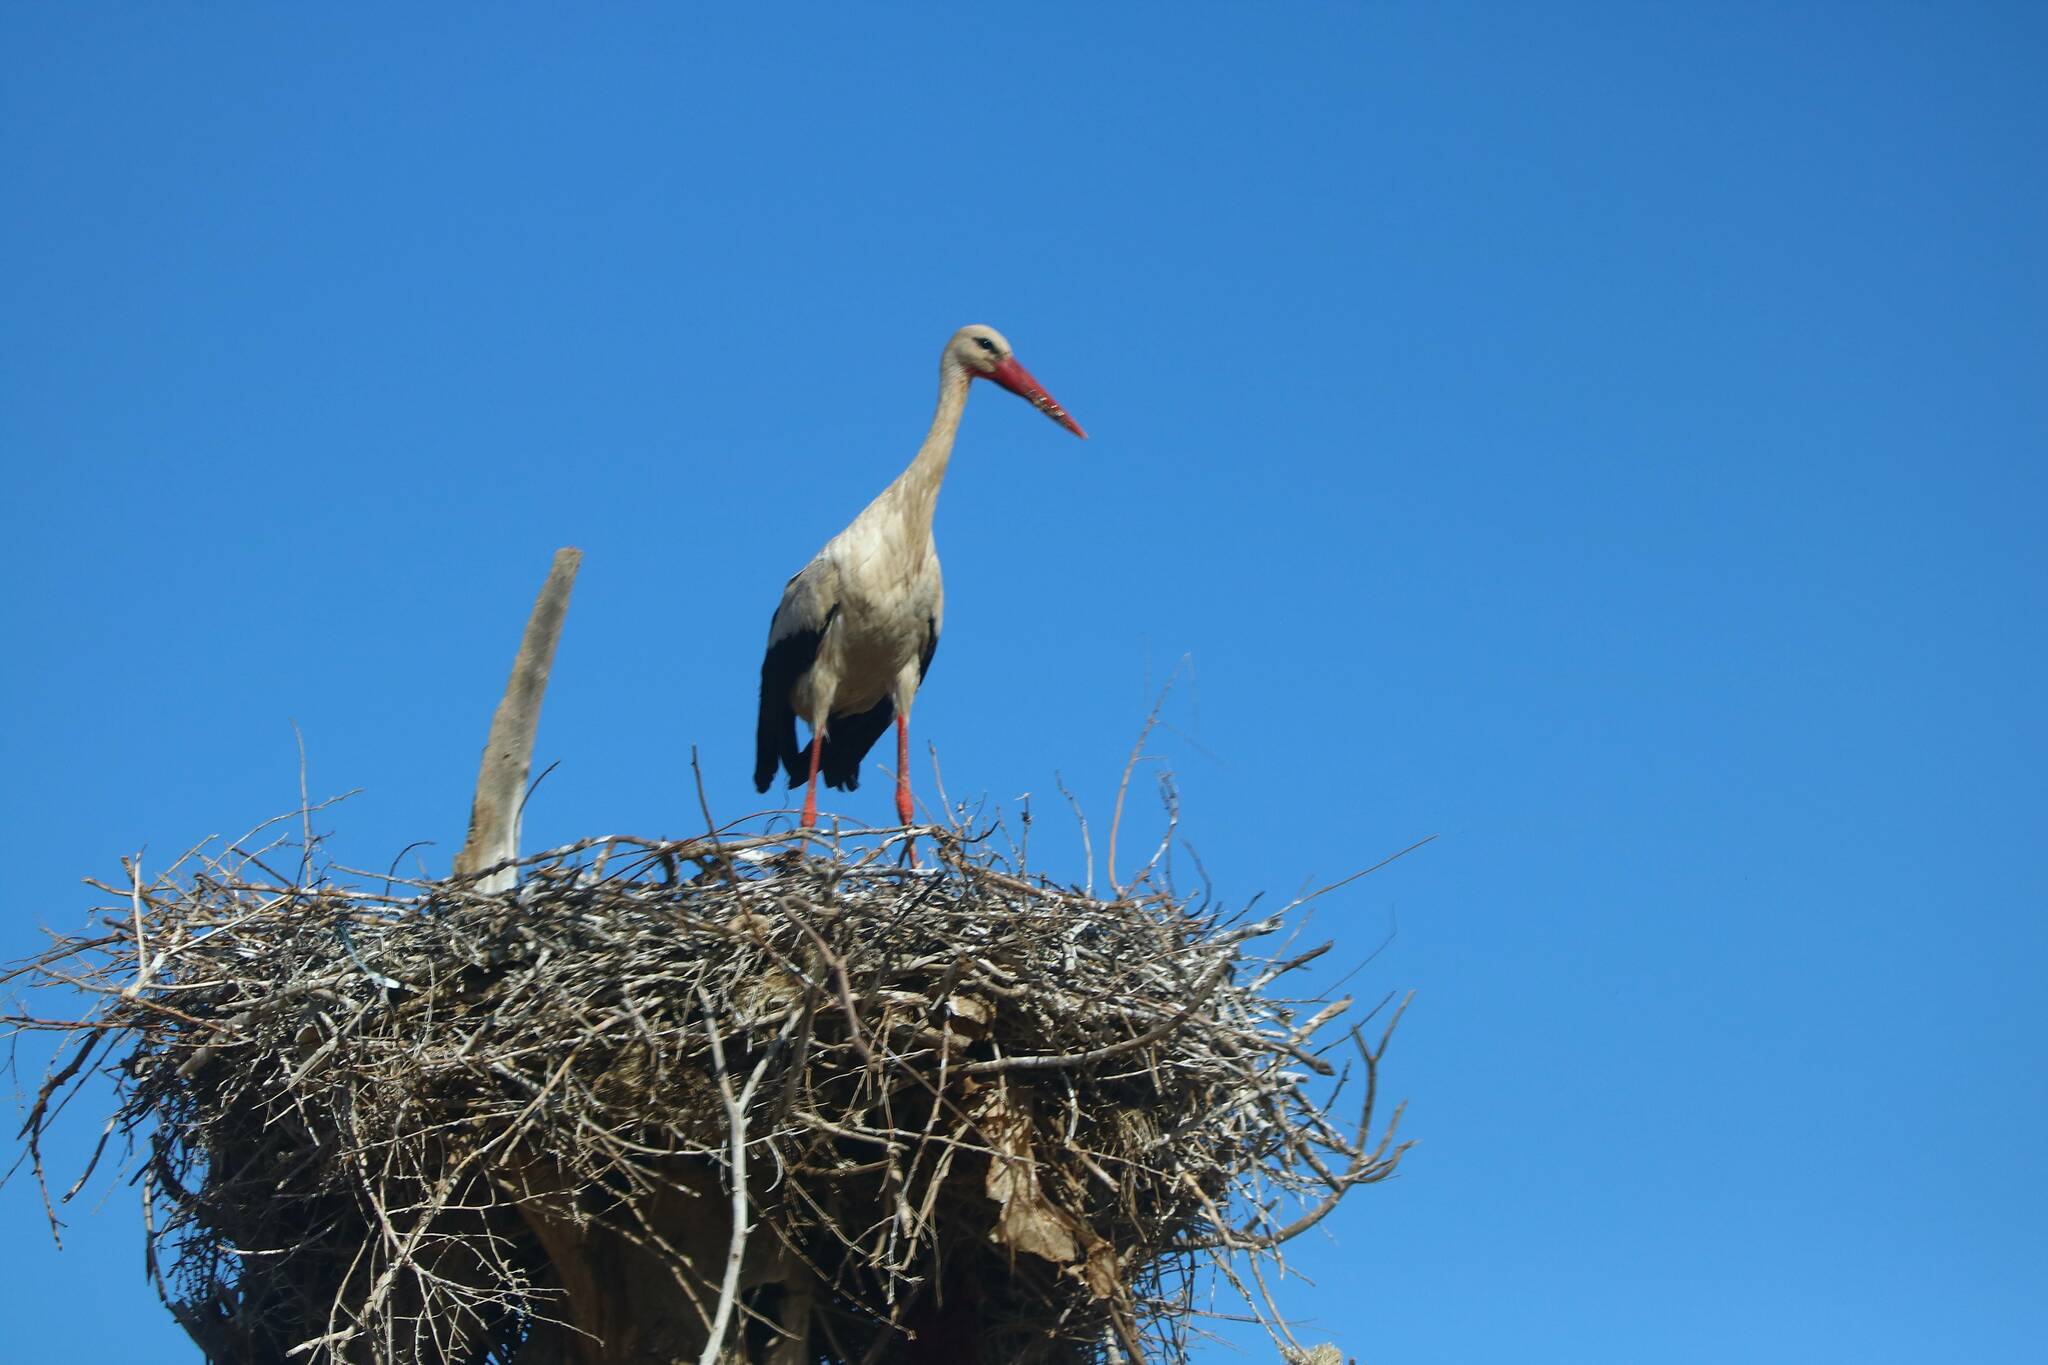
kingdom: Animalia
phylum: Chordata
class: Aves
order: Ciconiiformes
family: Ciconiidae
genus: Ciconia
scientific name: Ciconia ciconia
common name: White stork
